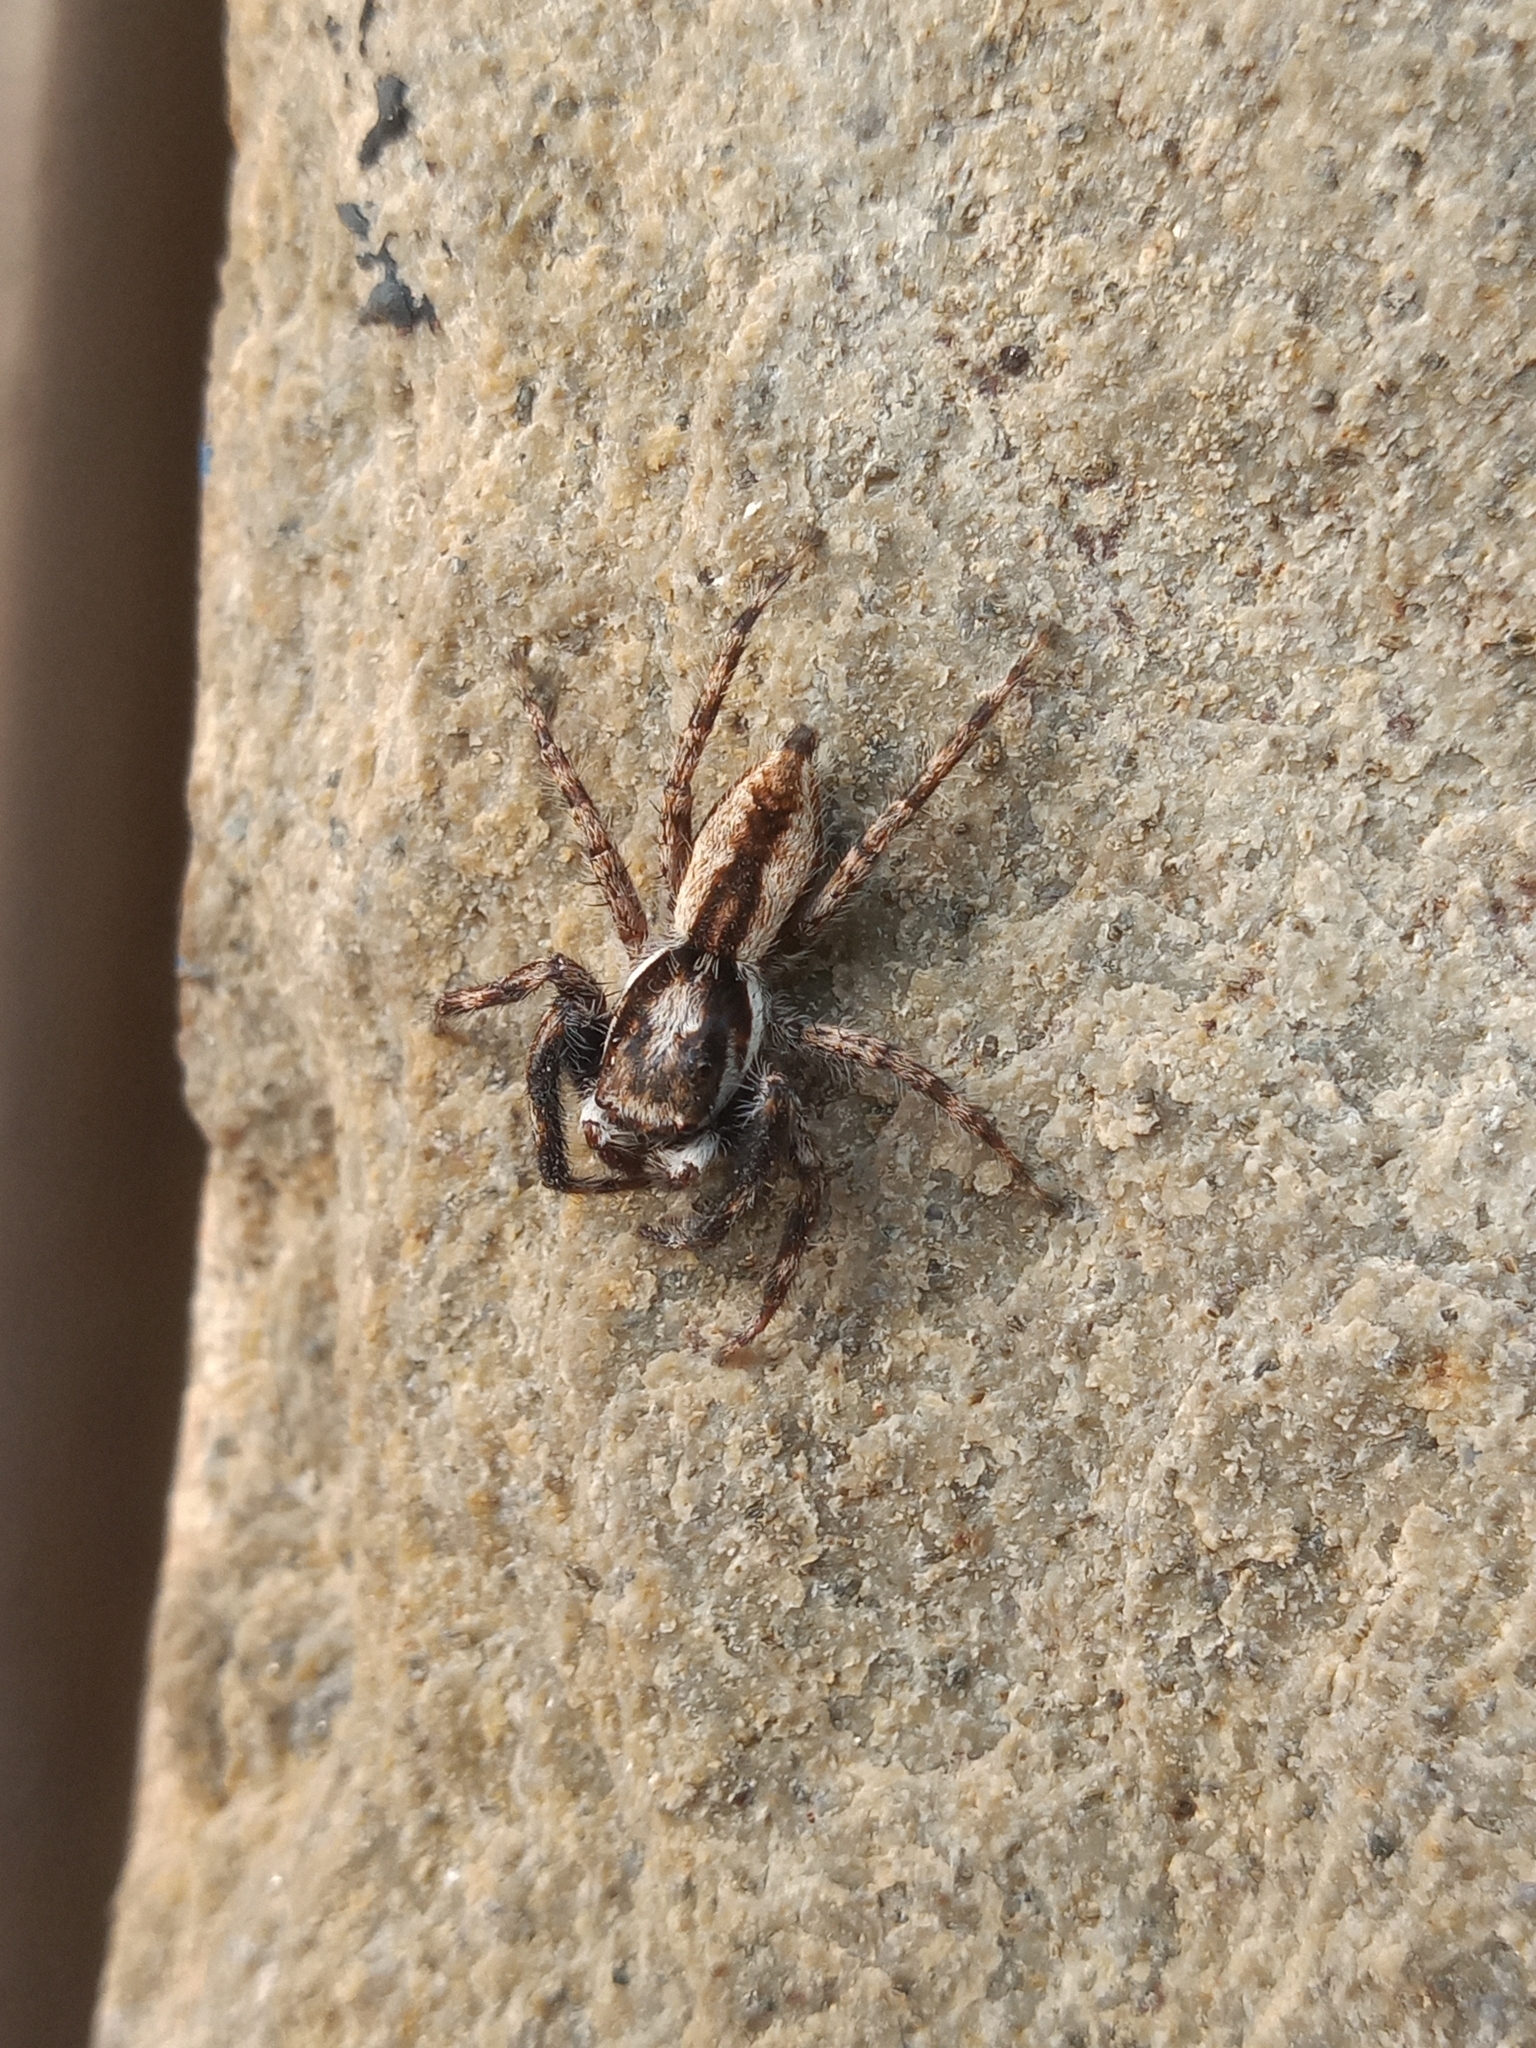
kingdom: Animalia
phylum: Arthropoda
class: Arachnida
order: Araneae
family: Salticidae
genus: Menemerus
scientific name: Menemerus bivittatus
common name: Gray wall jumper
